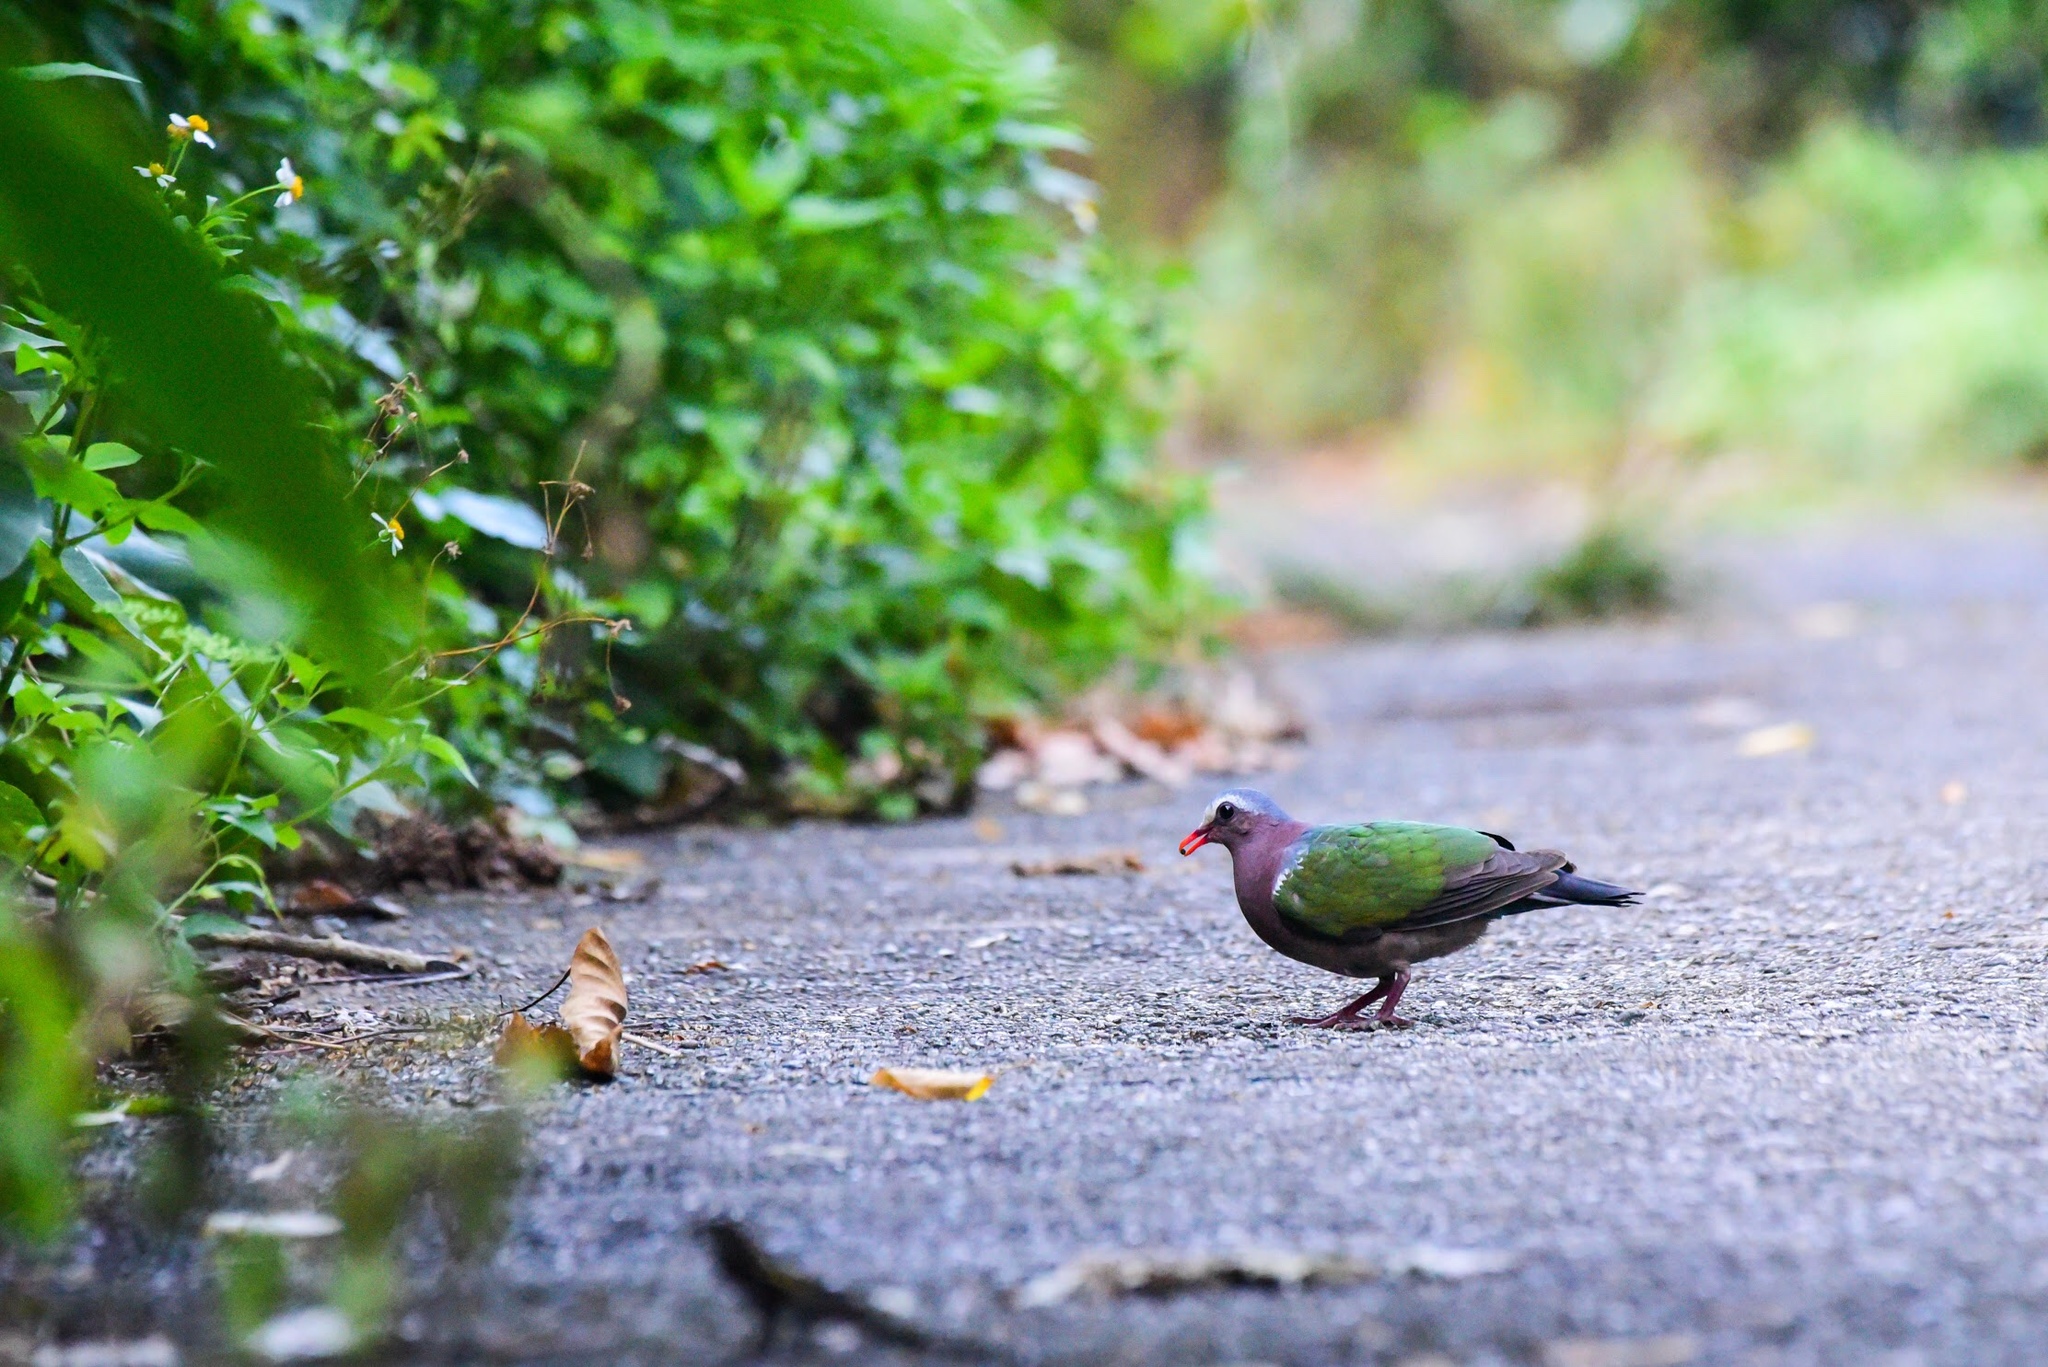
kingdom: Animalia
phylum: Chordata
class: Aves
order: Columbiformes
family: Columbidae
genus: Chalcophaps
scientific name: Chalcophaps indica
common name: Common emerald dove
